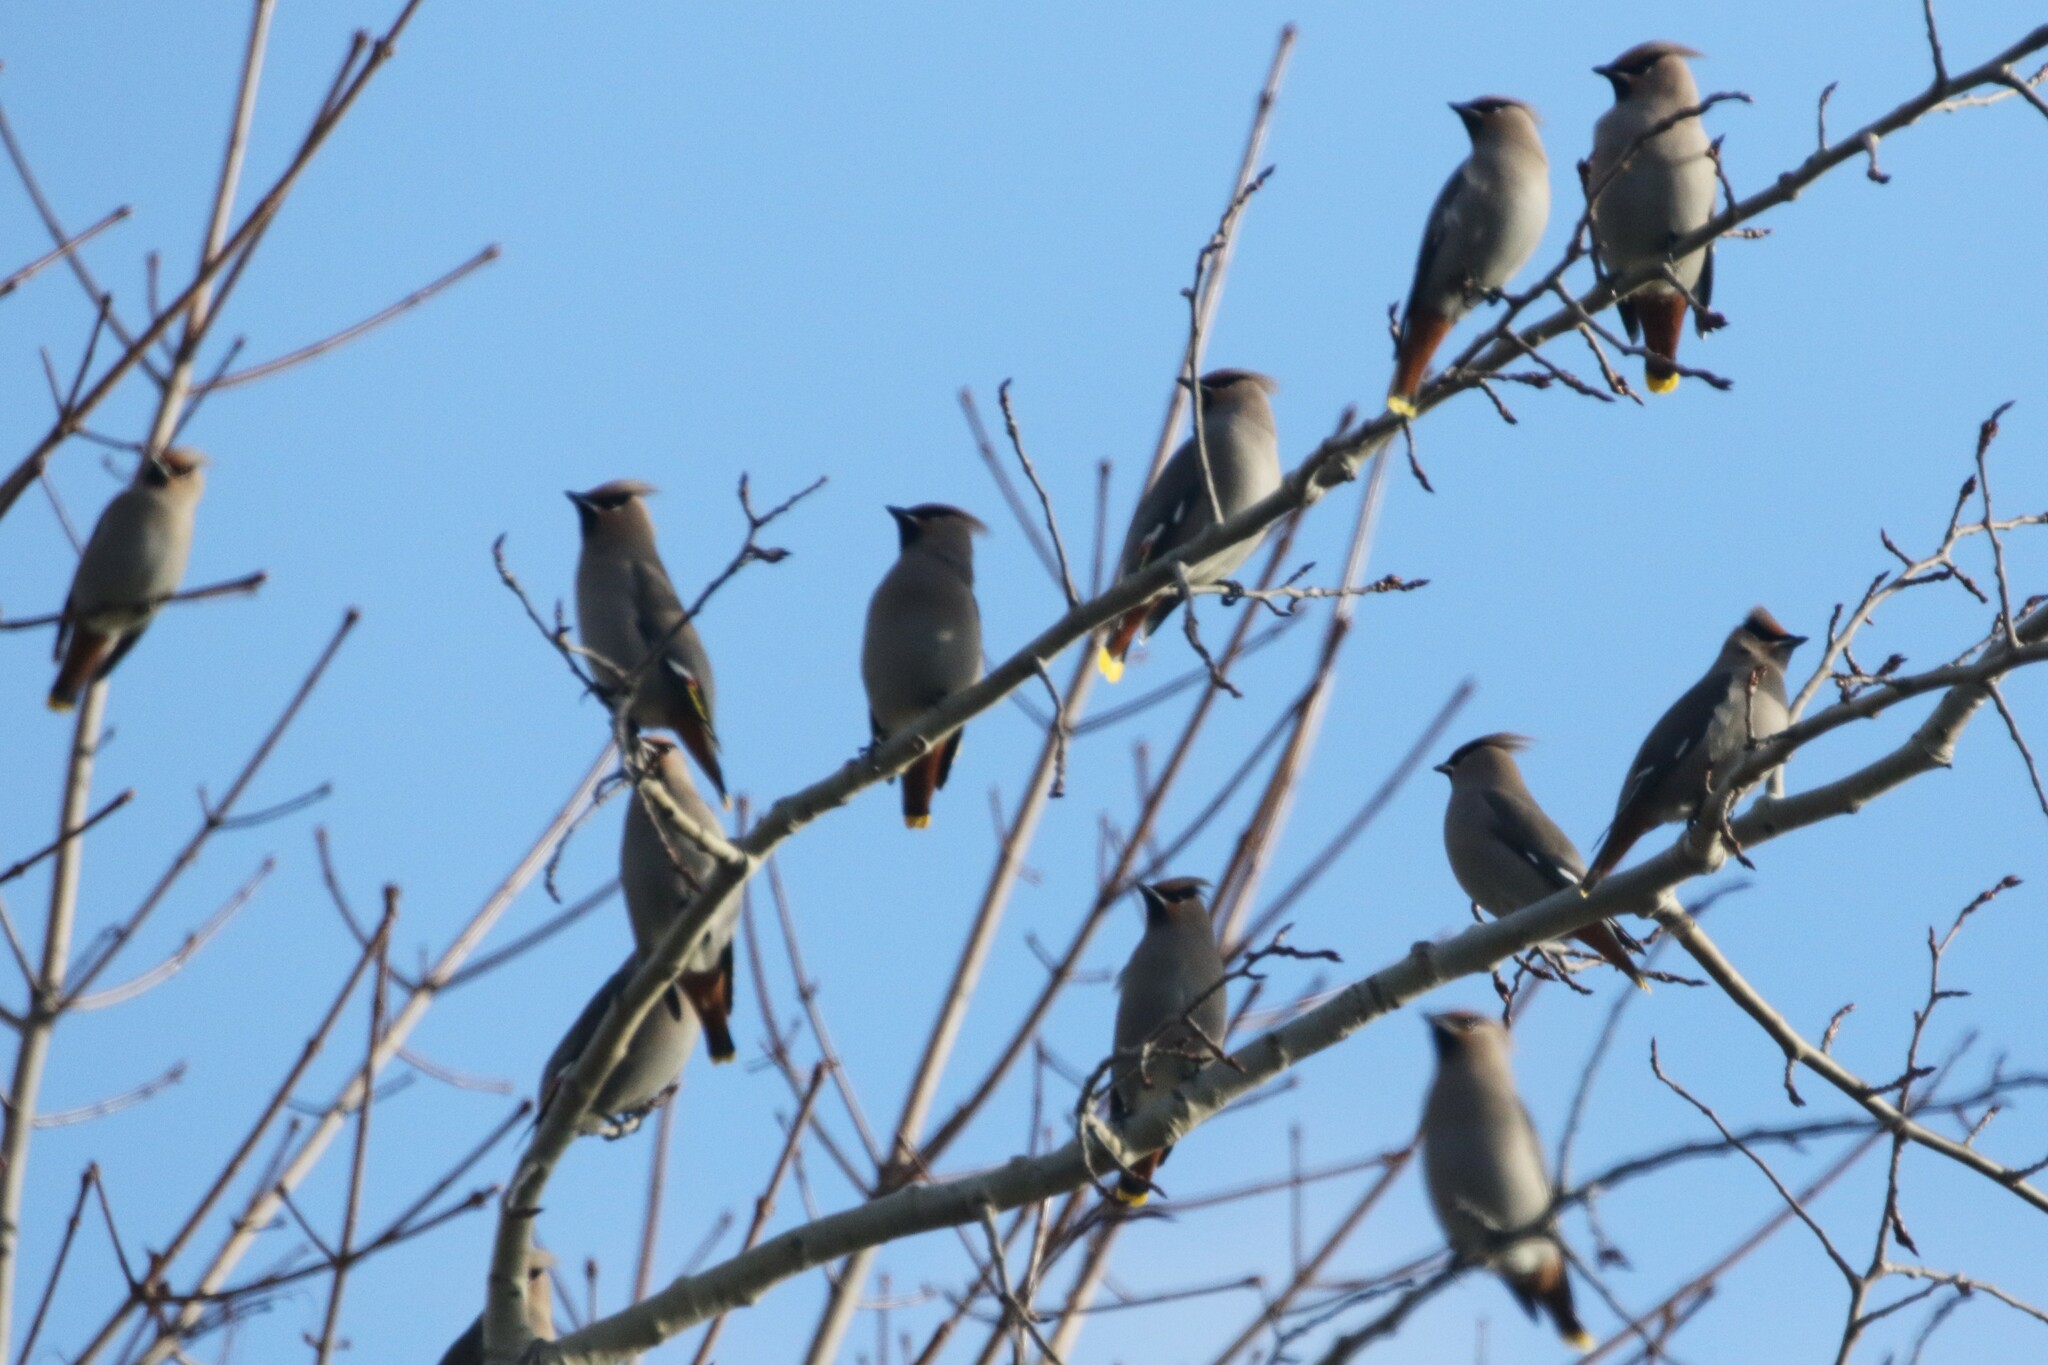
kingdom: Animalia
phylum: Chordata
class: Aves
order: Passeriformes
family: Bombycillidae
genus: Bombycilla
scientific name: Bombycilla garrulus
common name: Bohemian waxwing
